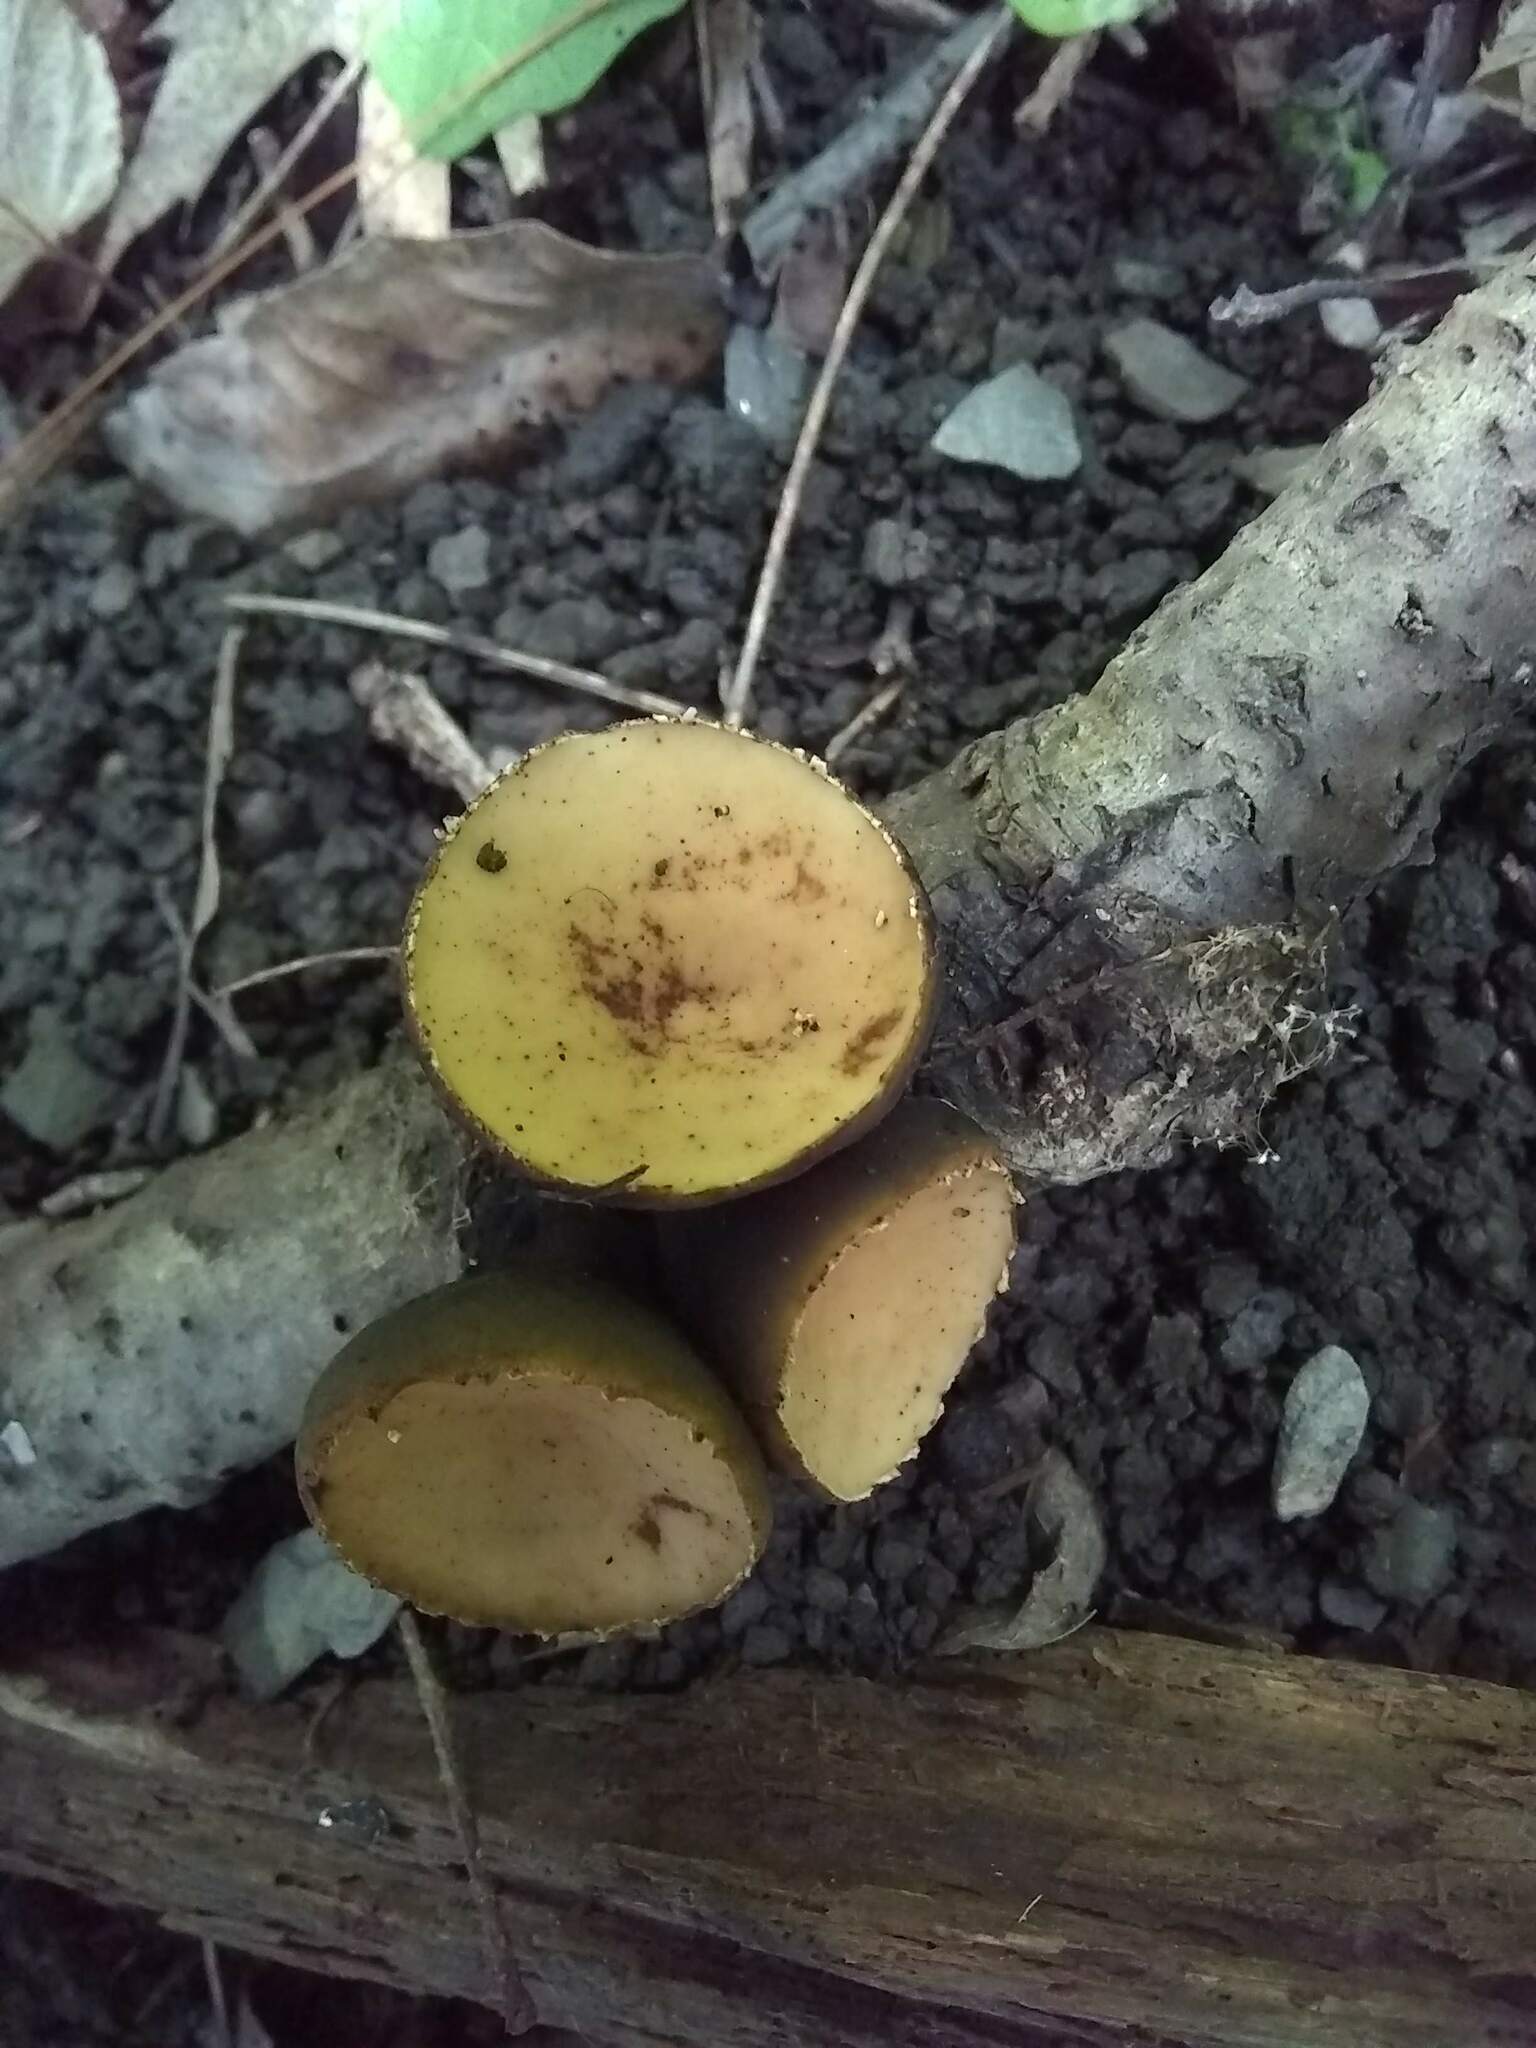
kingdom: Fungi
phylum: Ascomycota
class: Pezizomycetes
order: Pezizales
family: Sarcosomataceae
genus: Galiella
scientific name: Galiella rufa
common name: Hairy rubber cup
